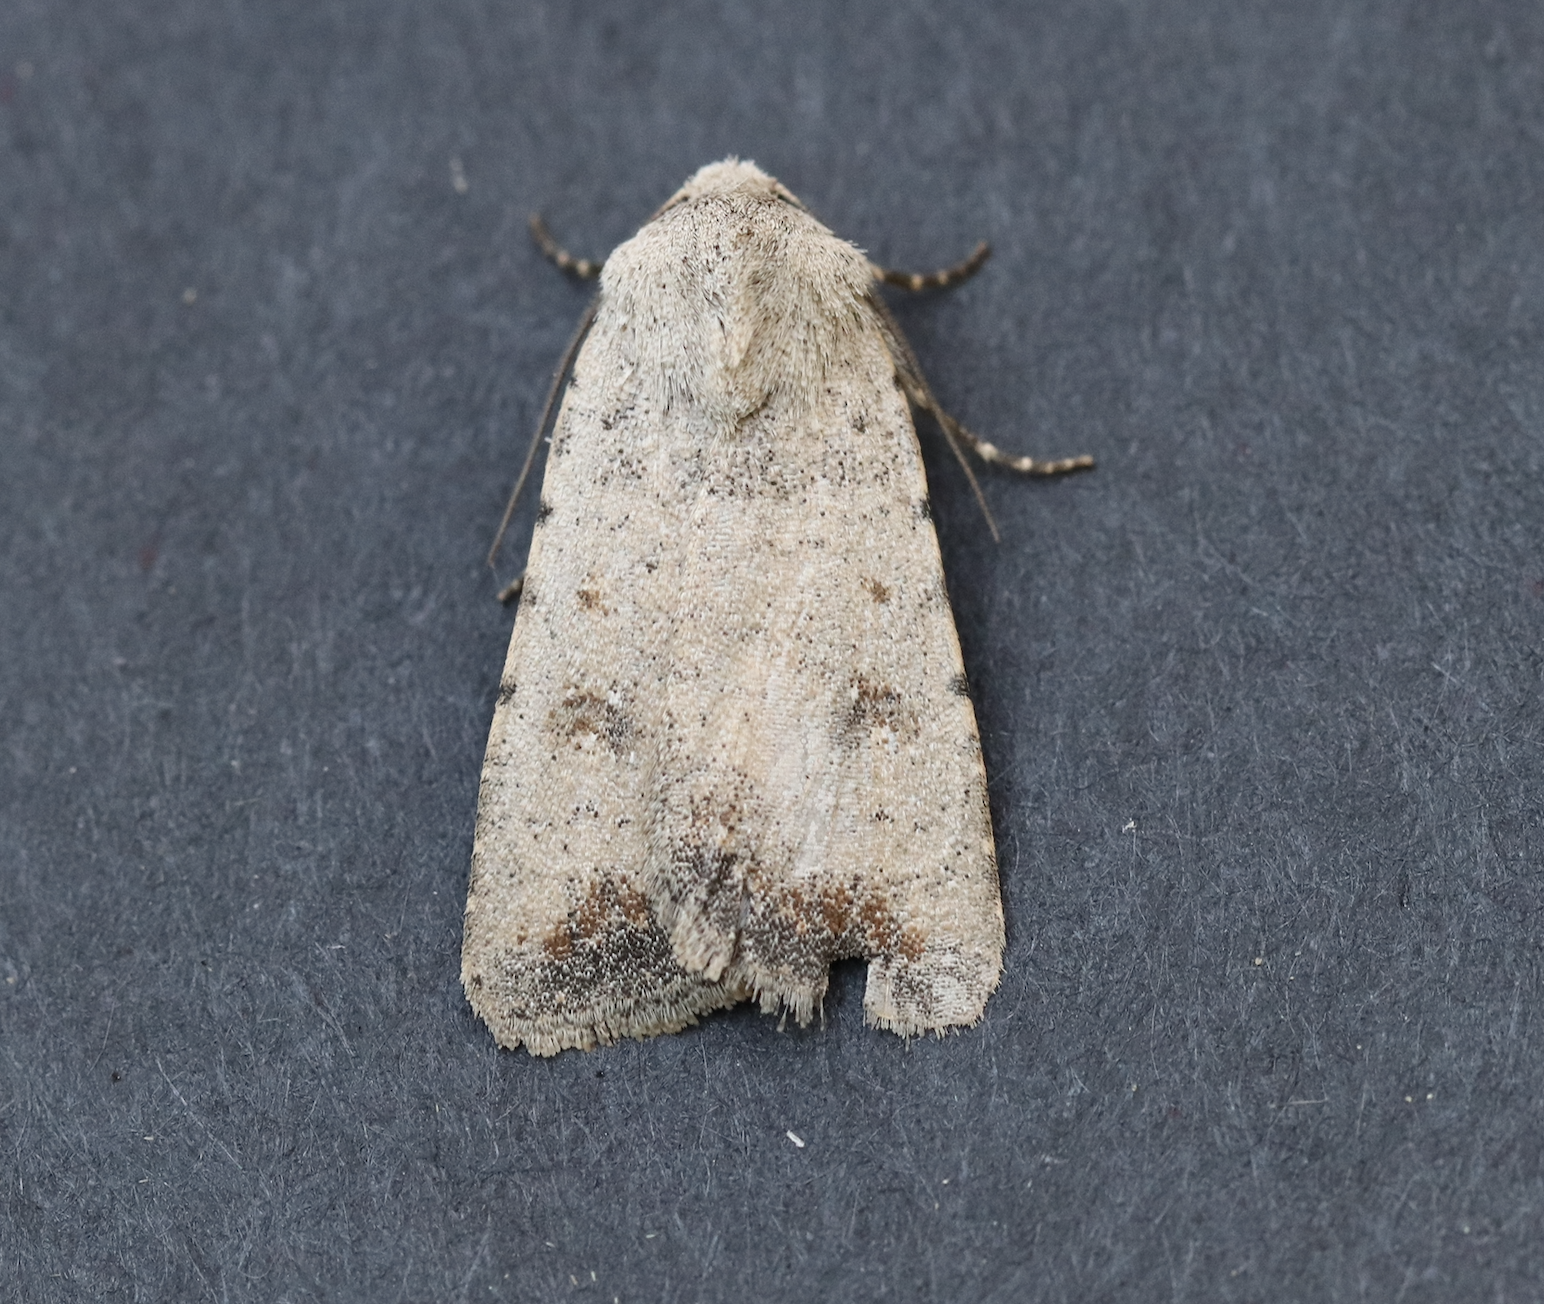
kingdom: Animalia
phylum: Arthropoda
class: Insecta
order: Lepidoptera
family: Noctuidae
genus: Caradrina
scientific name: Caradrina montana
